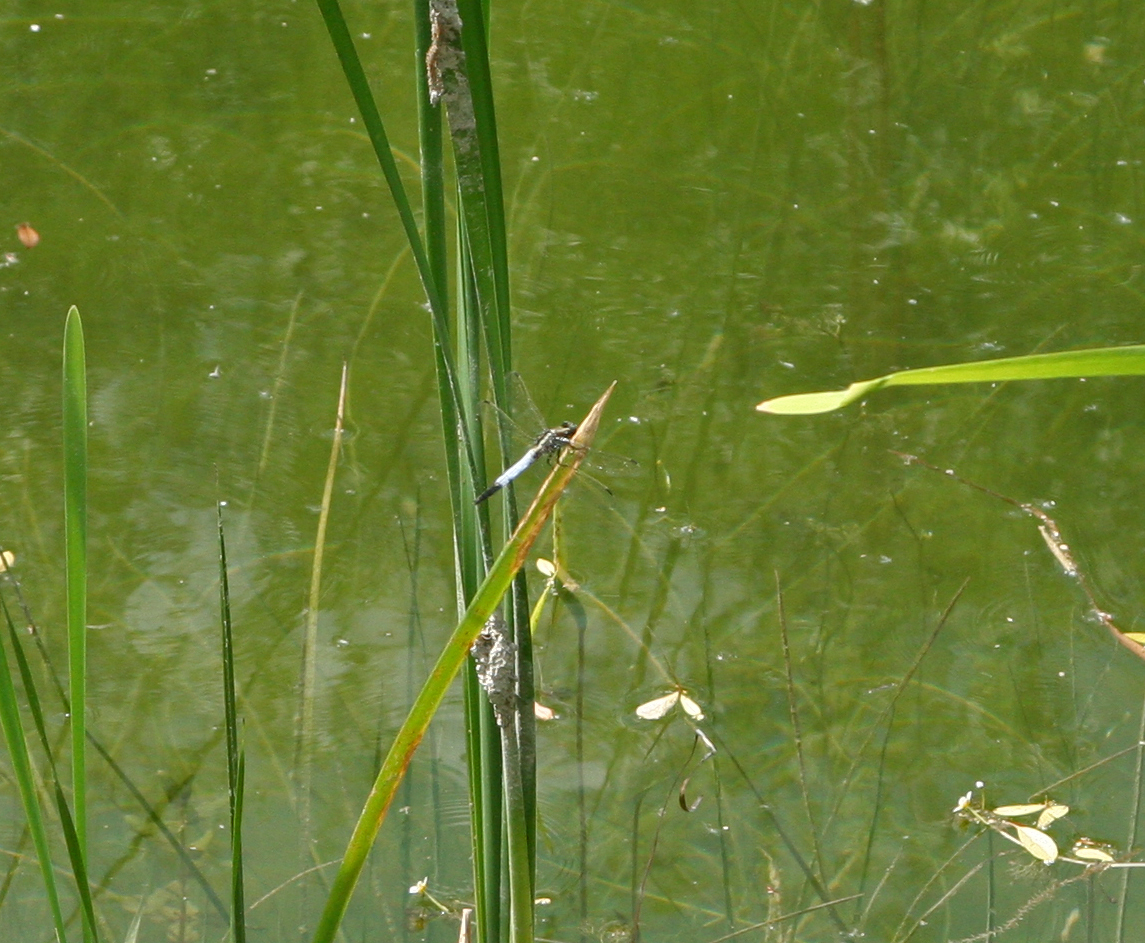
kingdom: Animalia
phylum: Arthropoda
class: Insecta
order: Odonata
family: Libellulidae
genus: Orthetrum
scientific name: Orthetrum albistylum
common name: White-tailed skimmer
